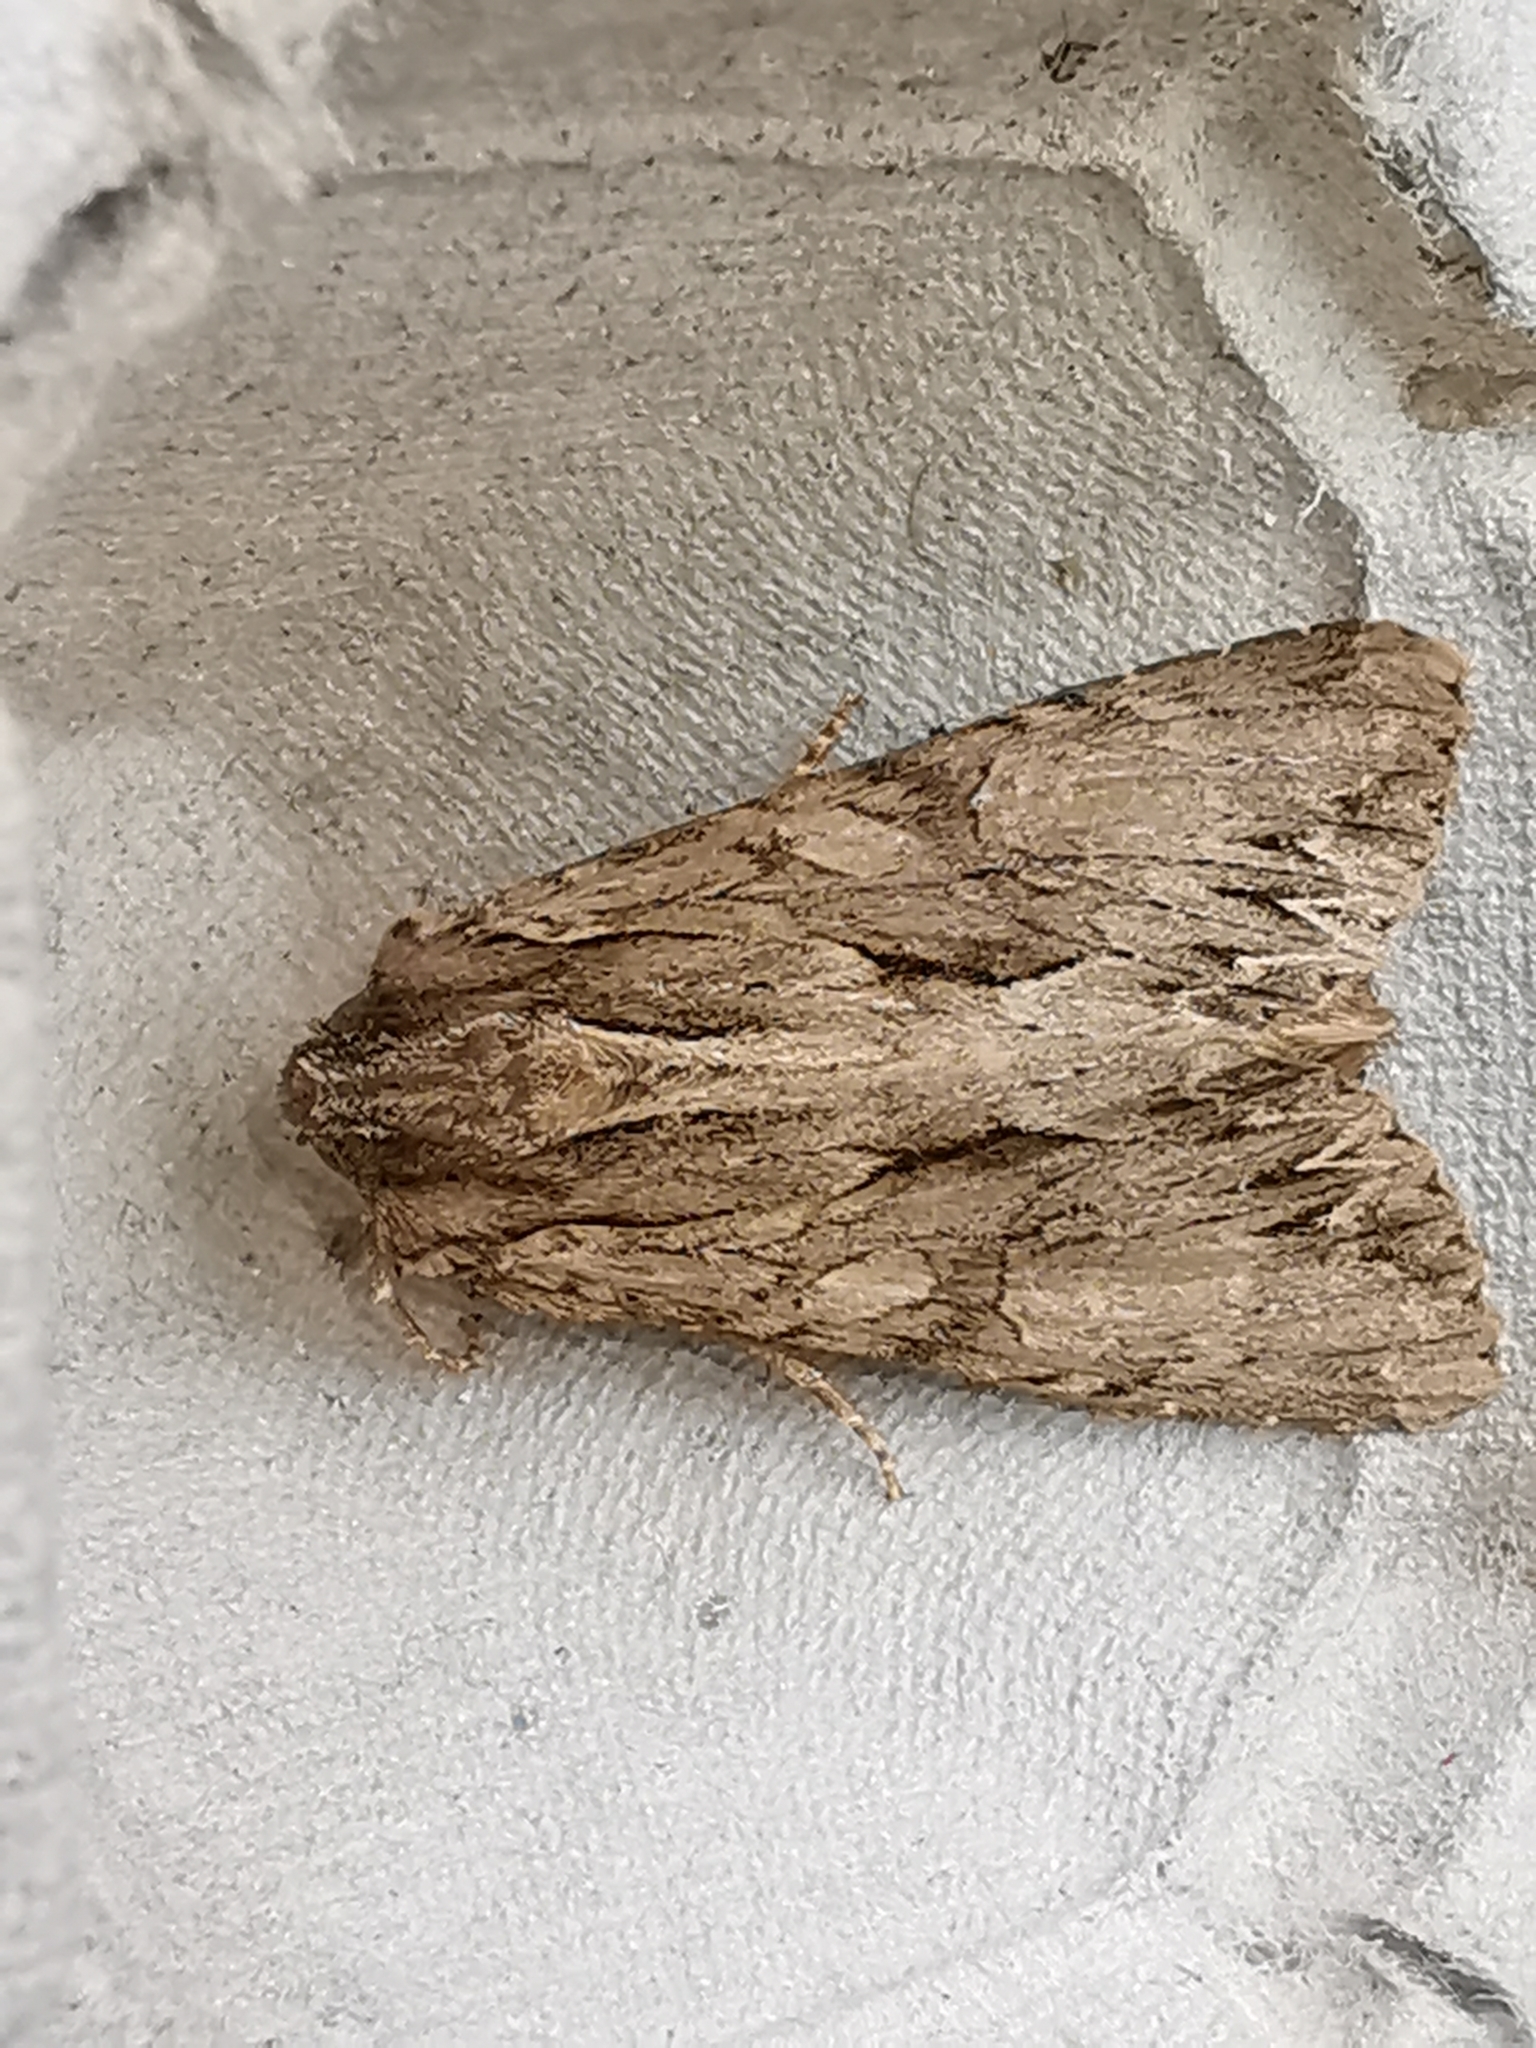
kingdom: Animalia
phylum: Arthropoda
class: Insecta
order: Lepidoptera
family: Noctuidae
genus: Apamea
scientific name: Apamea monoglypha
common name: Dark arches
